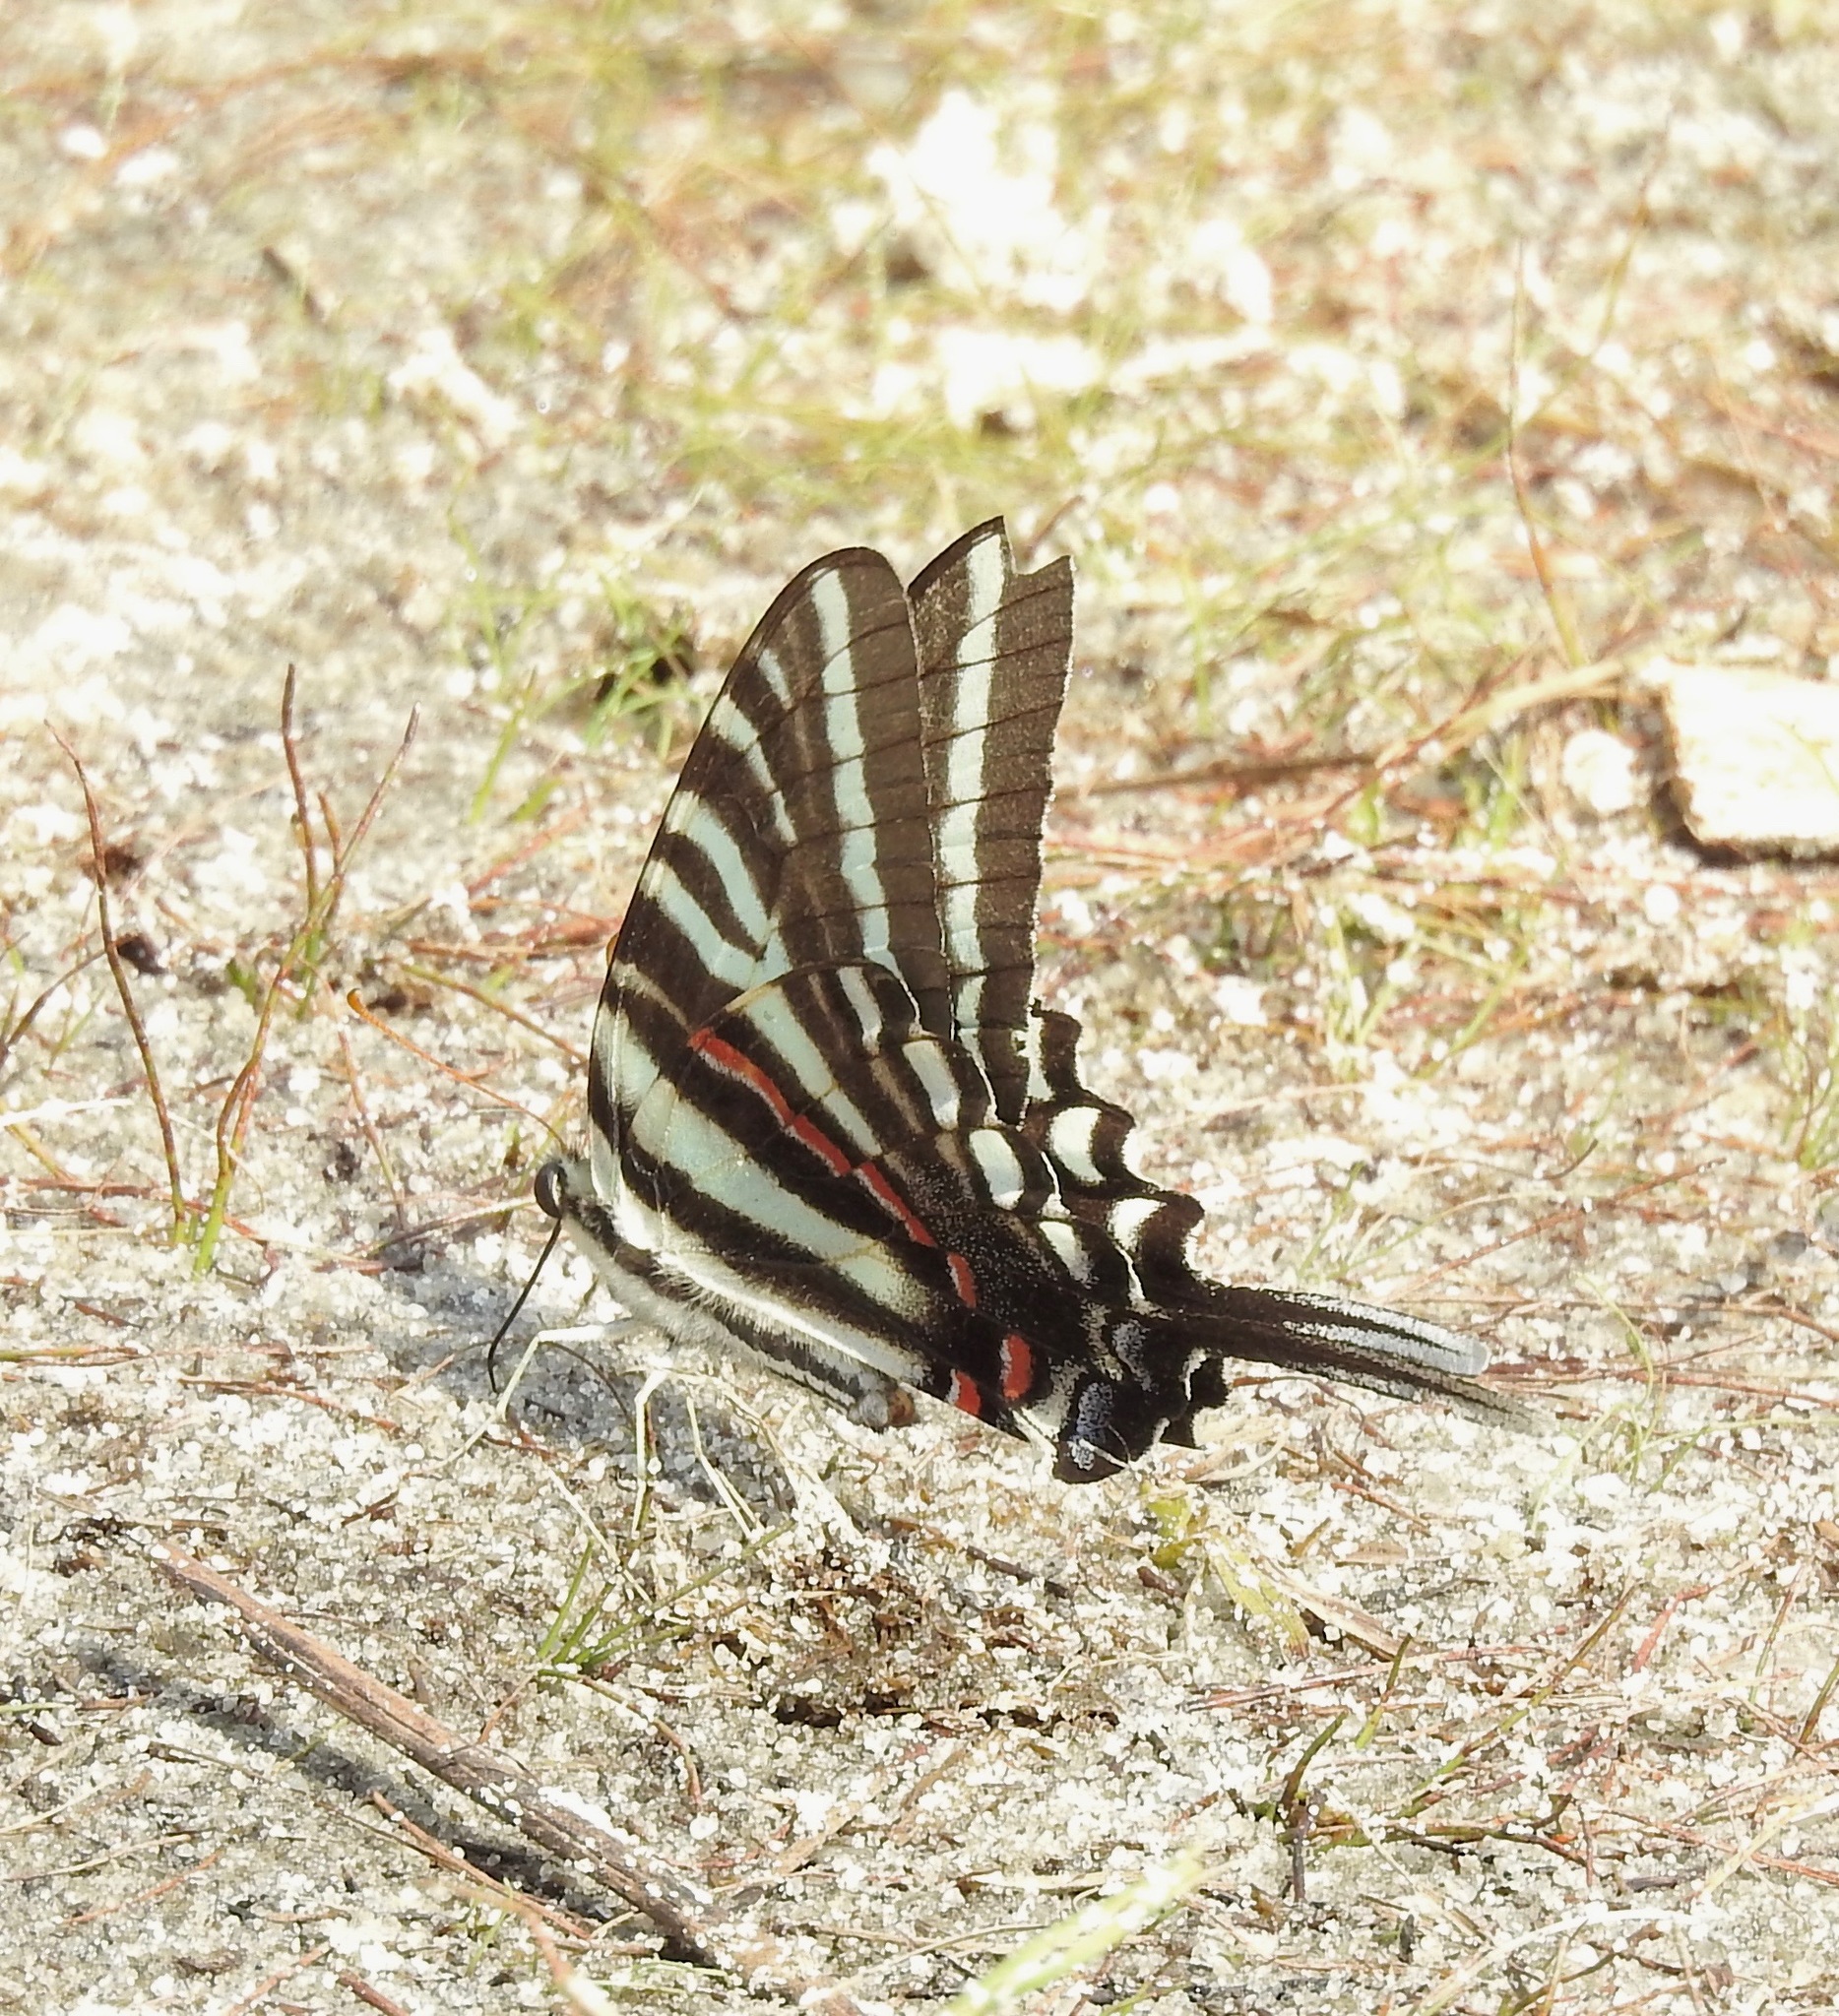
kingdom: Animalia
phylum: Arthropoda
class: Insecta
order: Lepidoptera
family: Papilionidae
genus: Protographium
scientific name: Protographium marcellus
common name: Zebra swallowtail
